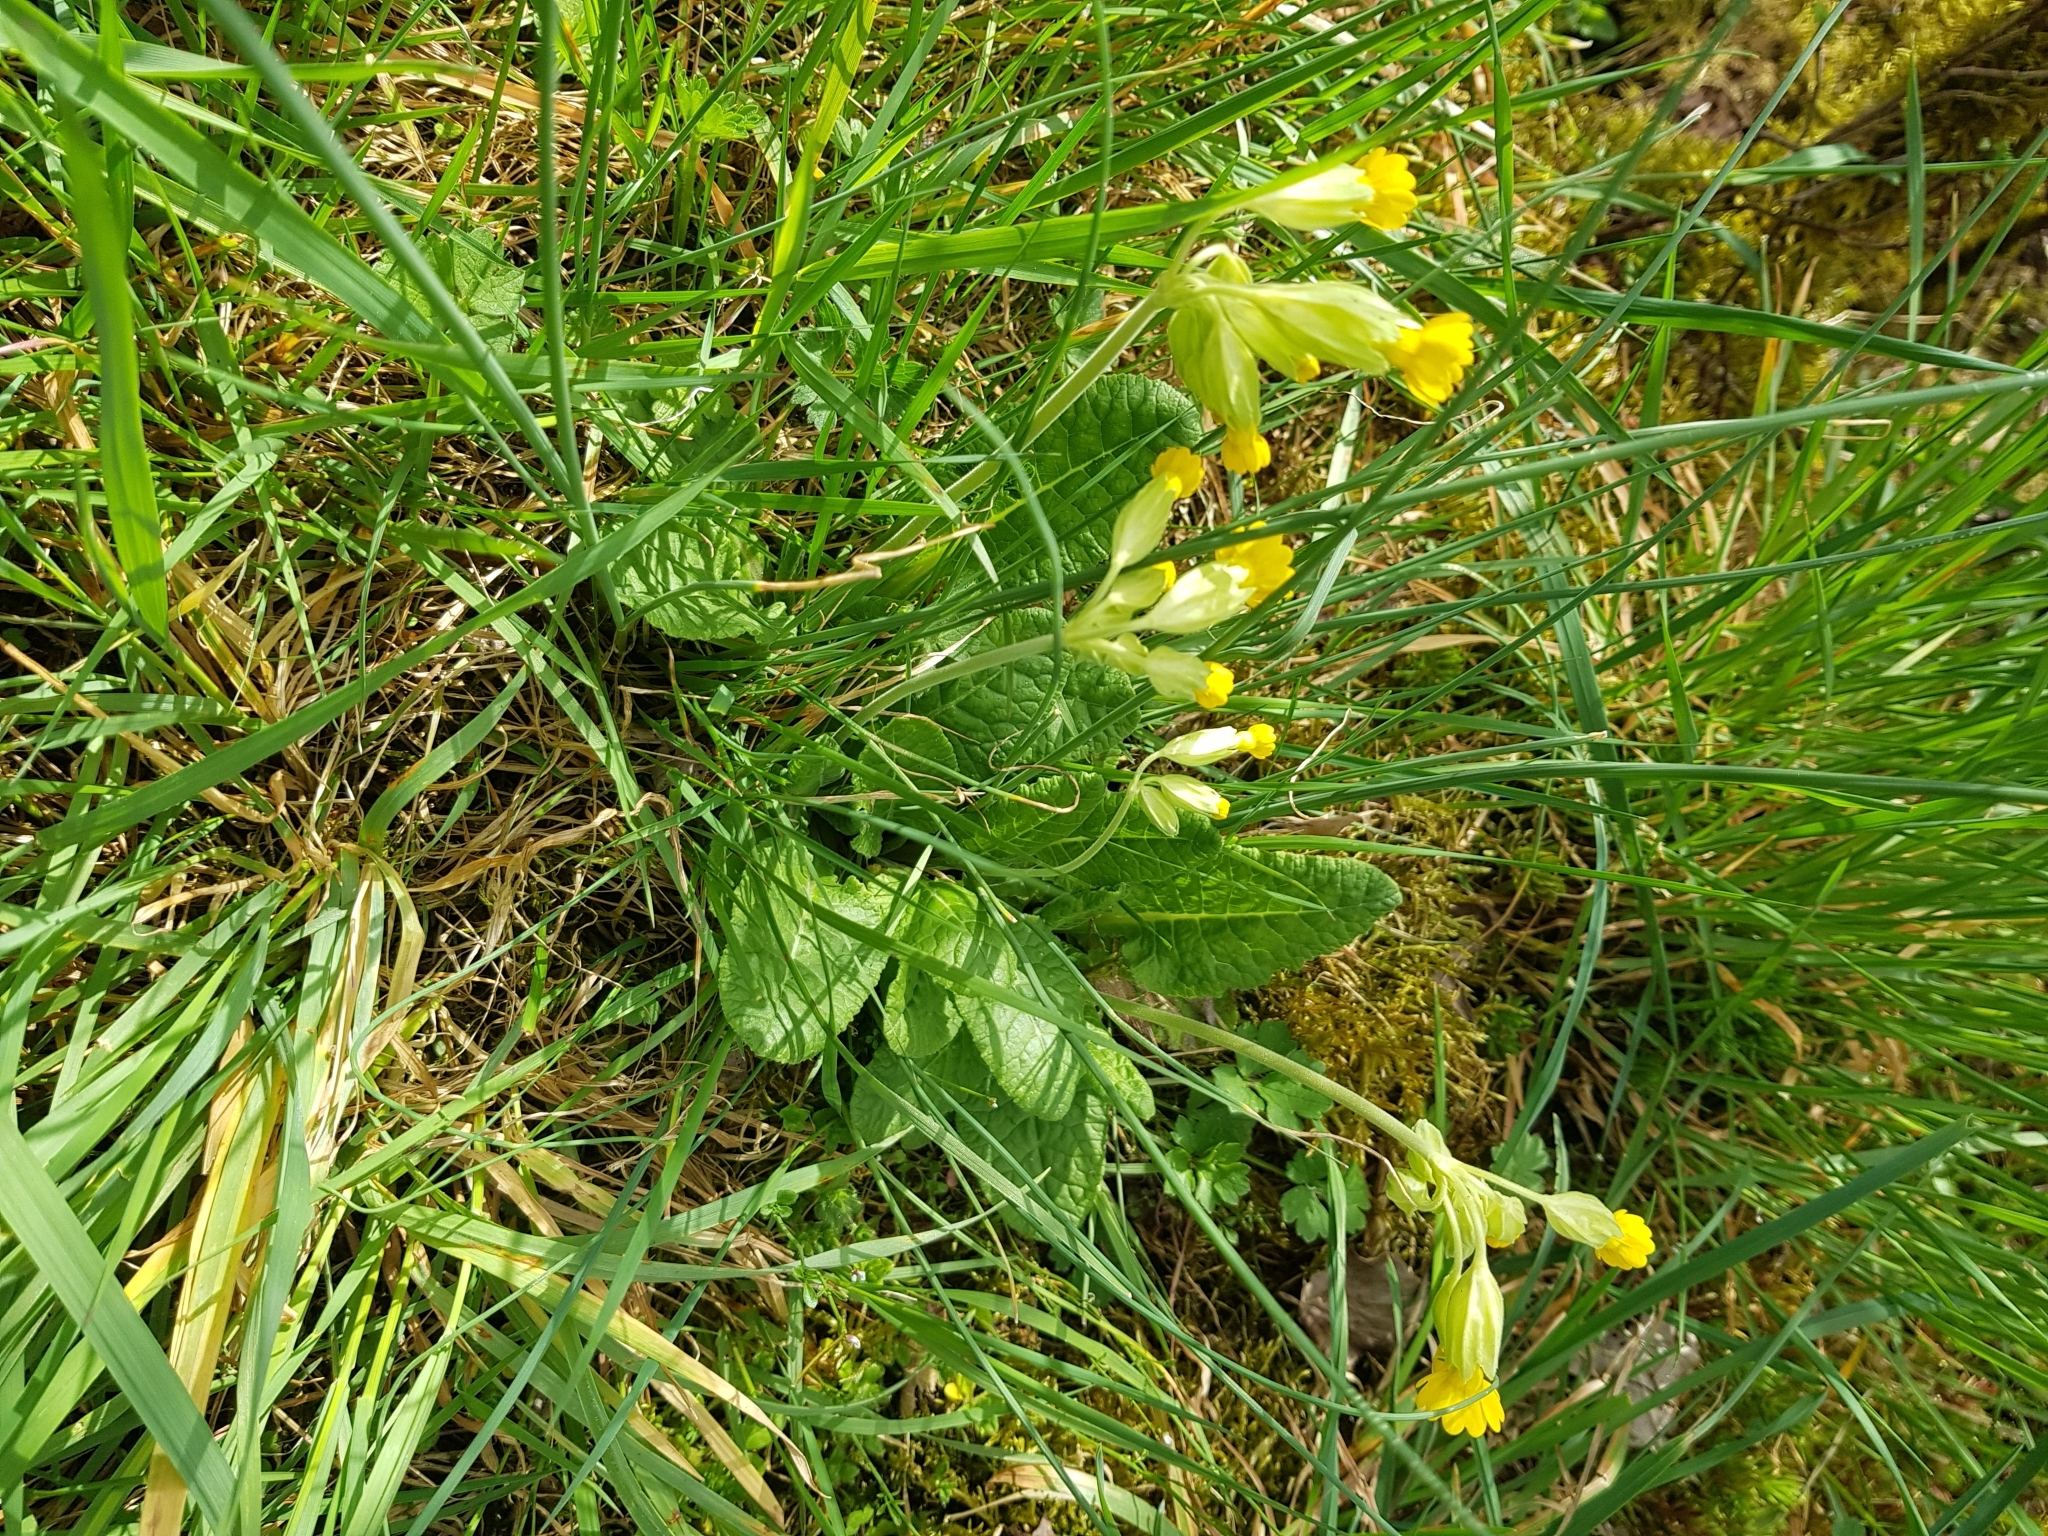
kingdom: Plantae
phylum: Tracheophyta
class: Magnoliopsida
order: Ericales
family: Primulaceae
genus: Primula
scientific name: Primula veris
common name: Cowslip
